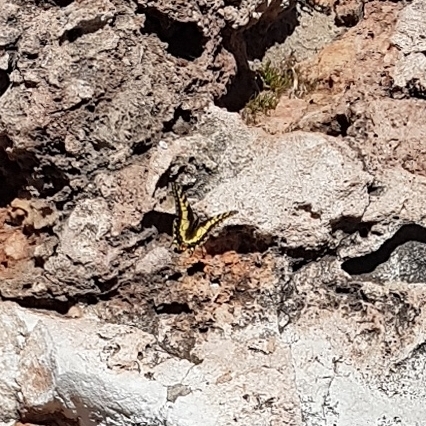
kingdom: Animalia
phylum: Arthropoda
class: Insecta
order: Lepidoptera
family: Papilionidae
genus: Papilio
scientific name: Papilio machaon
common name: Swallowtail
